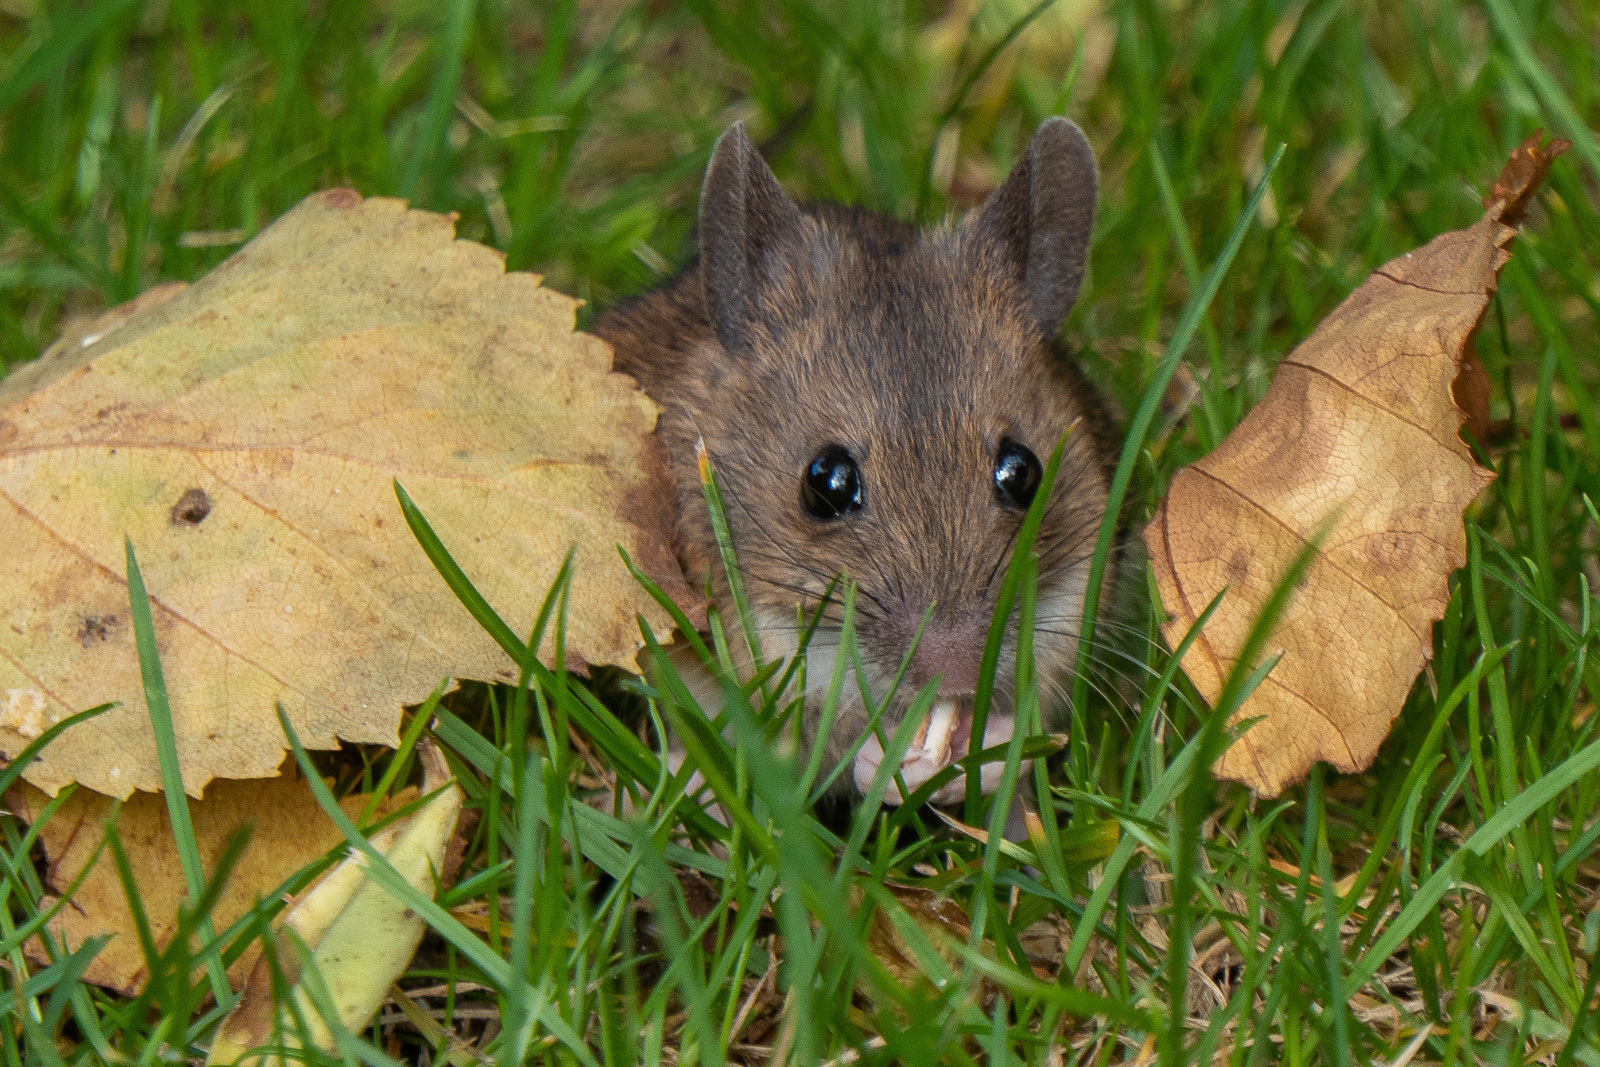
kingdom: Animalia
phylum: Chordata
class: Mammalia
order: Rodentia
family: Muridae
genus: Apodemus
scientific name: Apodemus sylvaticus
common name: Wood mouse
